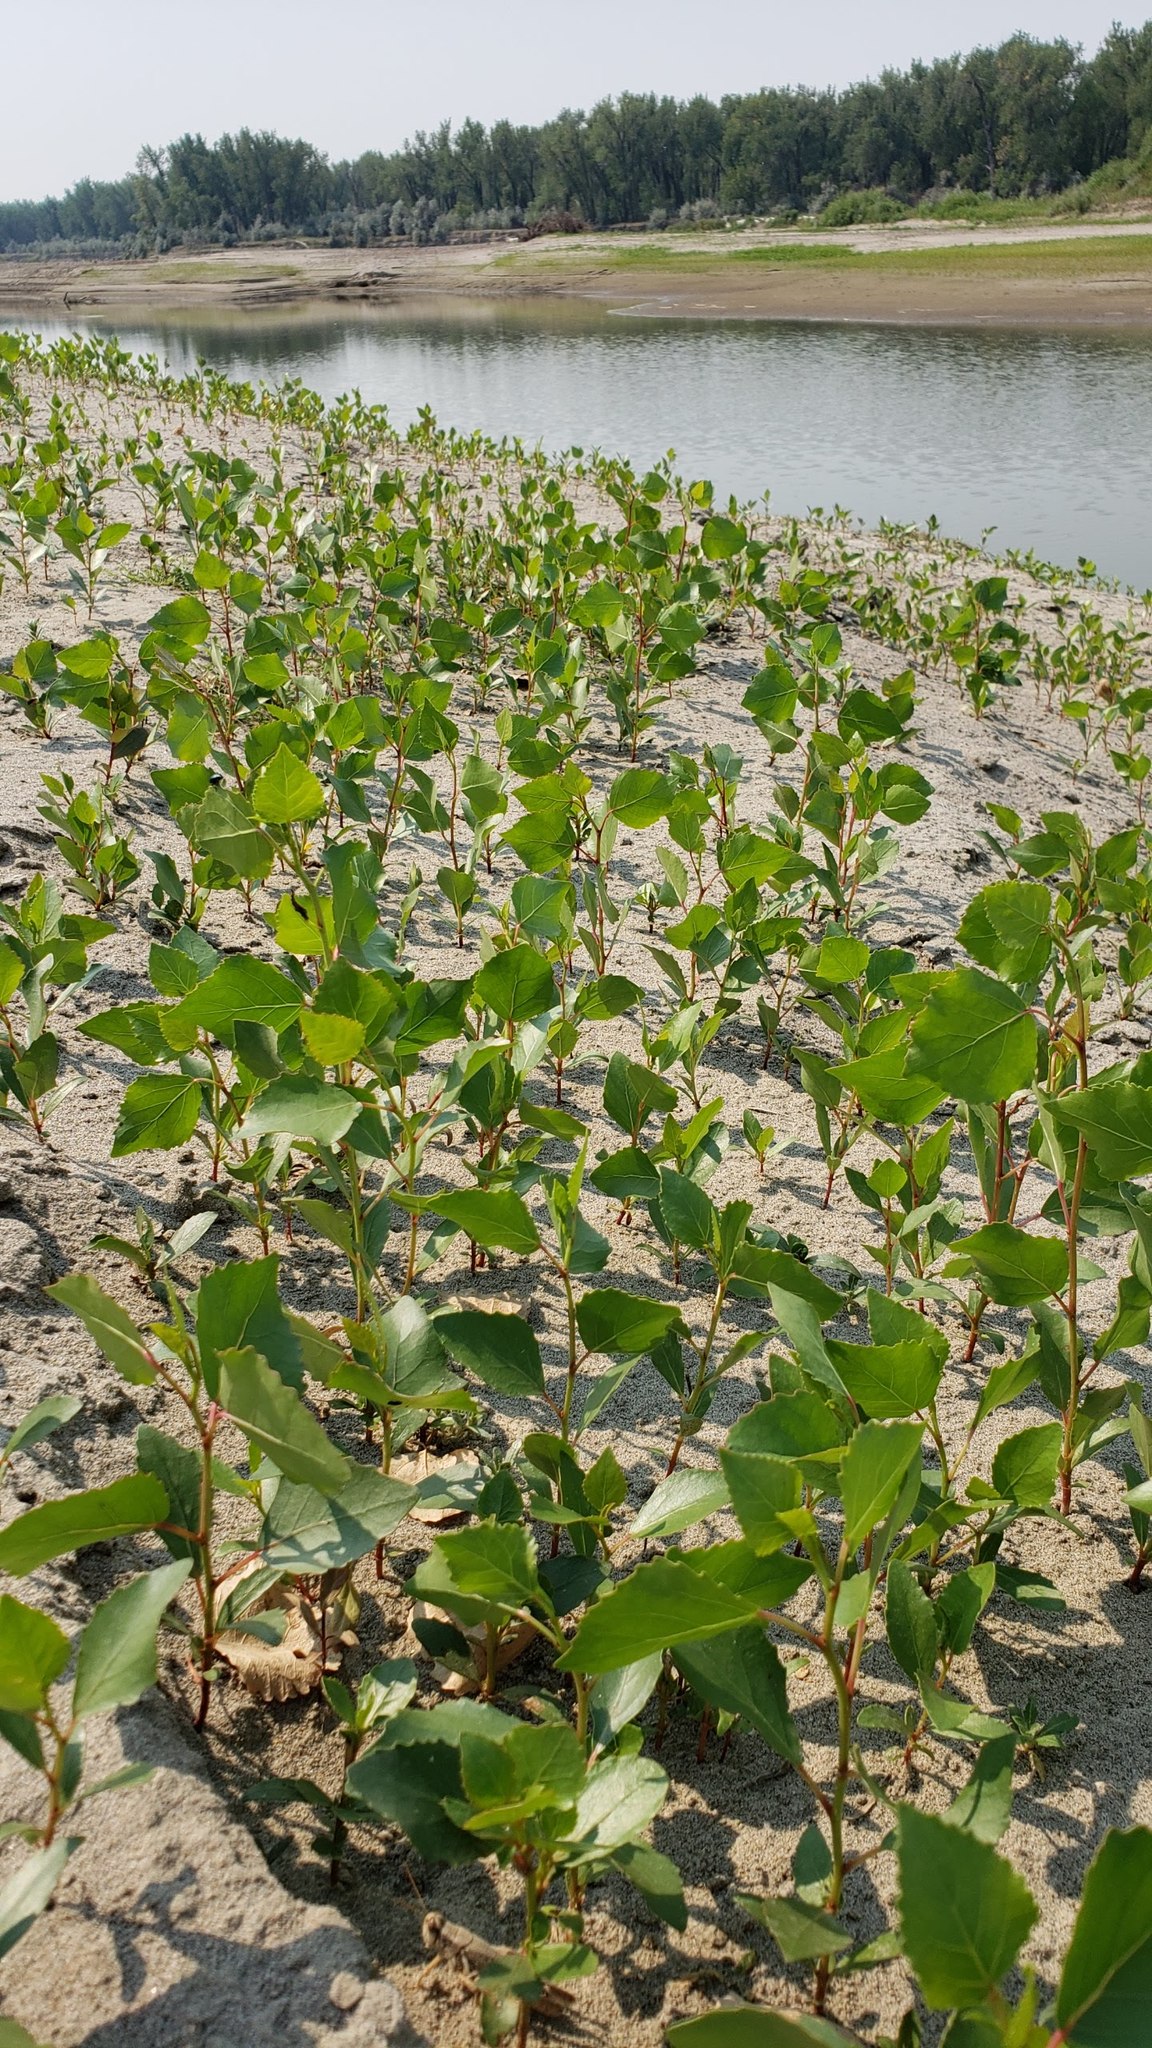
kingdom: Plantae
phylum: Tracheophyta
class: Magnoliopsida
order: Malpighiales
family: Salicaceae
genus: Populus
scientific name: Populus deltoides
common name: Eastern cottonwood
